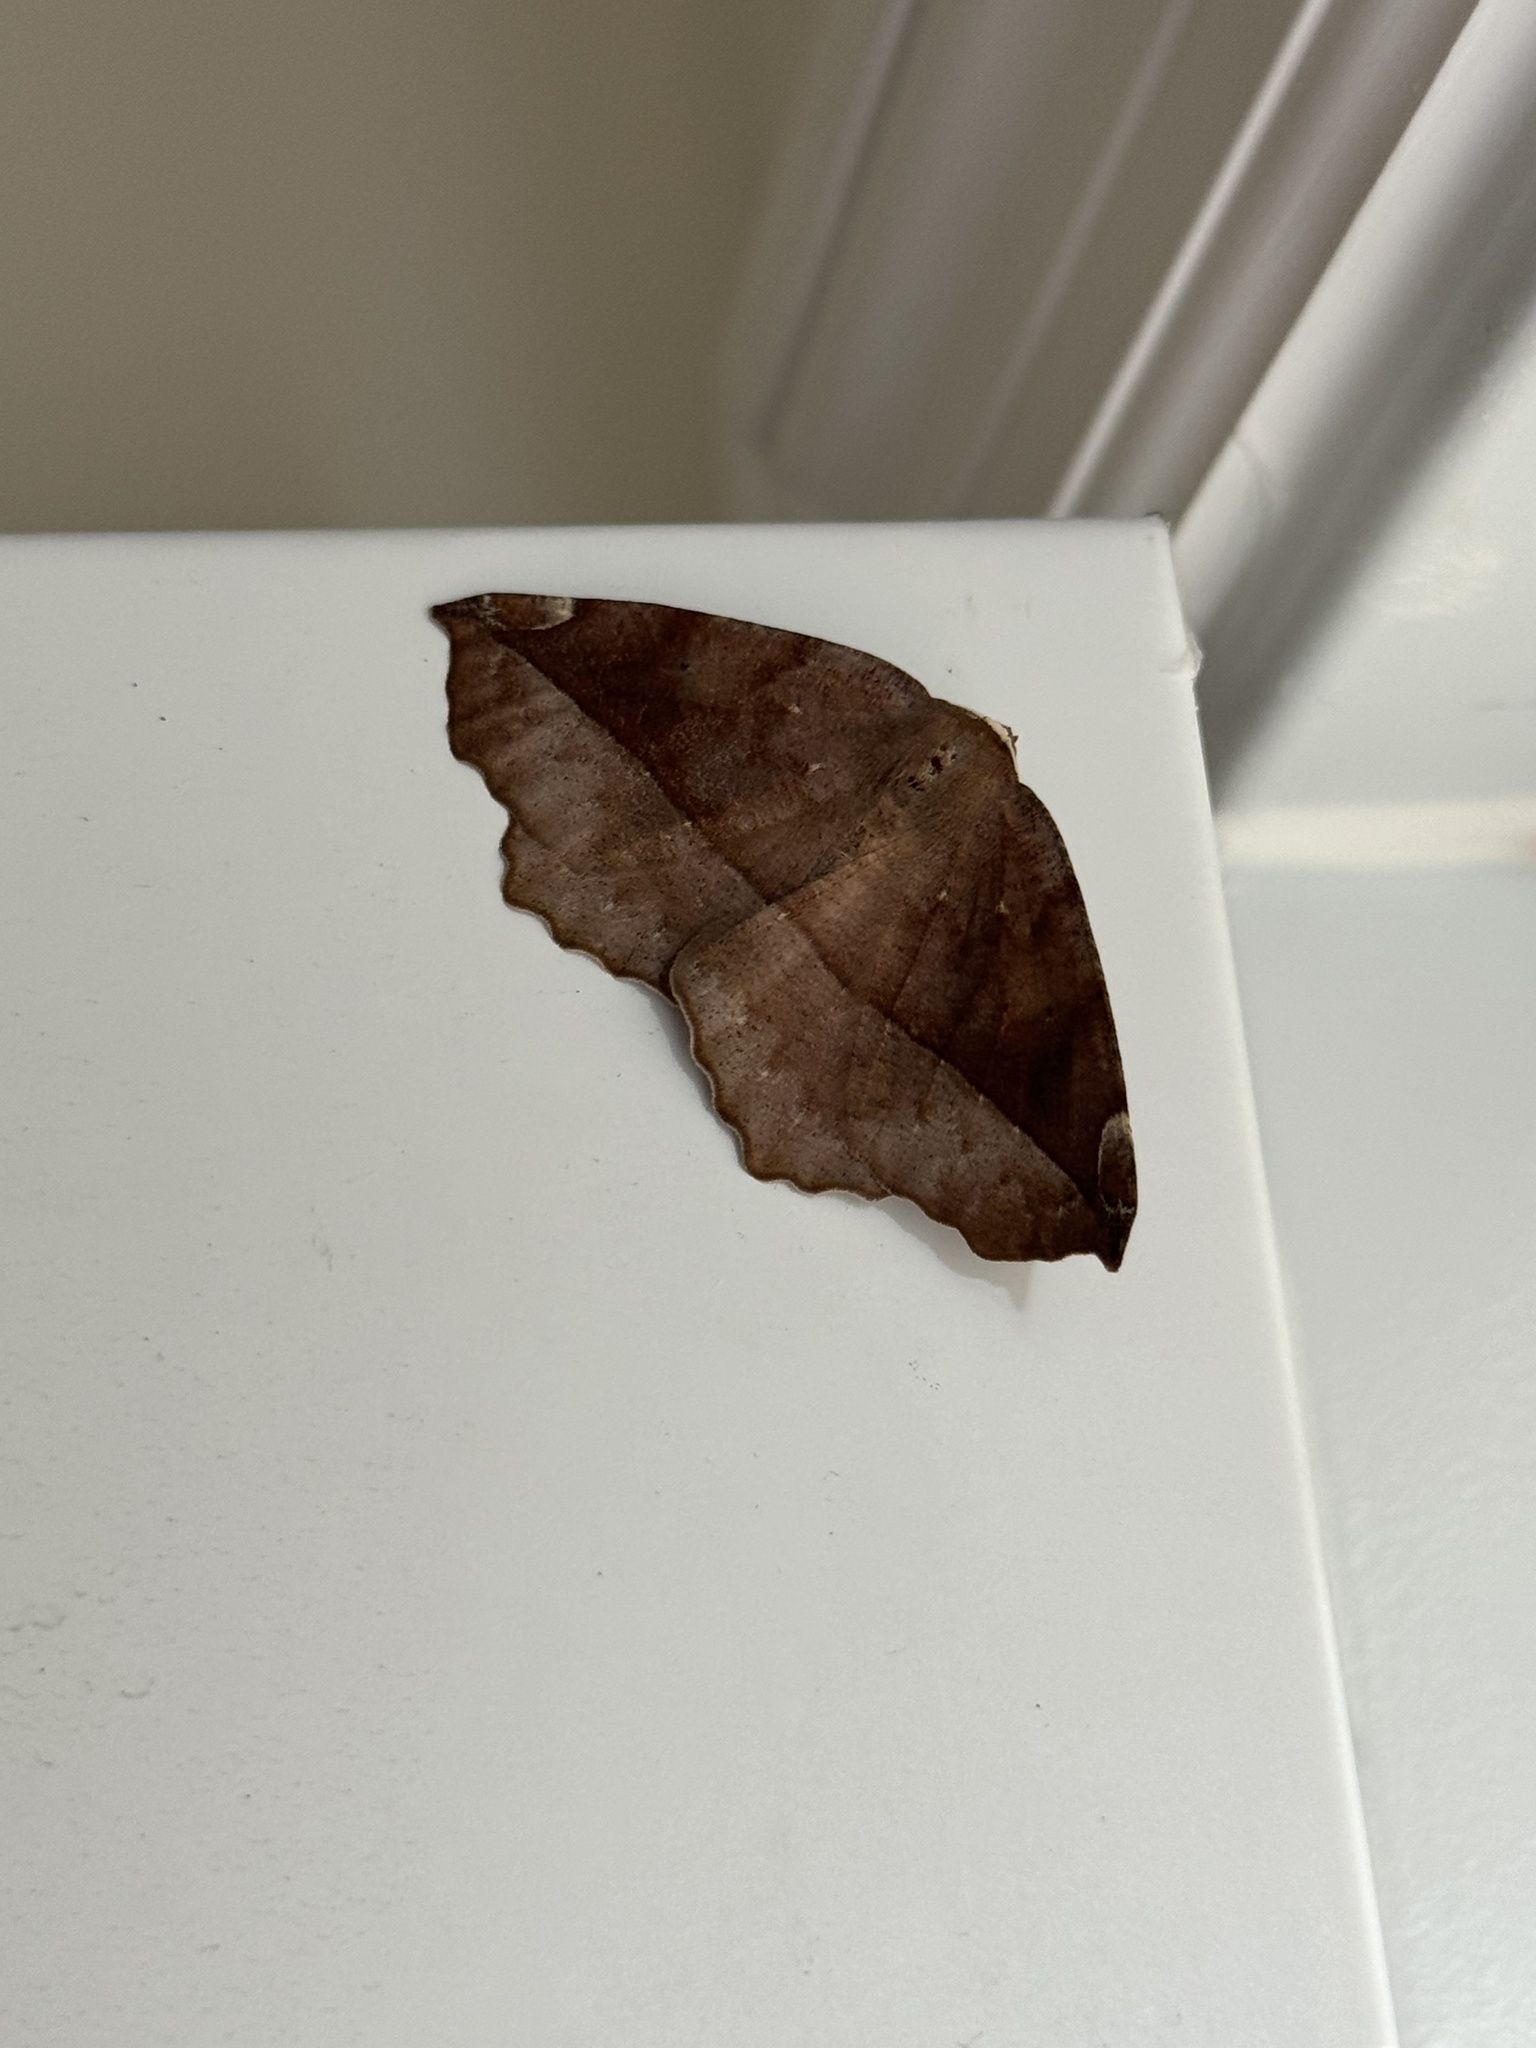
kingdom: Animalia
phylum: Arthropoda
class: Insecta
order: Lepidoptera
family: Geometridae
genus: Eutrapela
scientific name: Eutrapela clemataria
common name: Curved-toothed geometer
